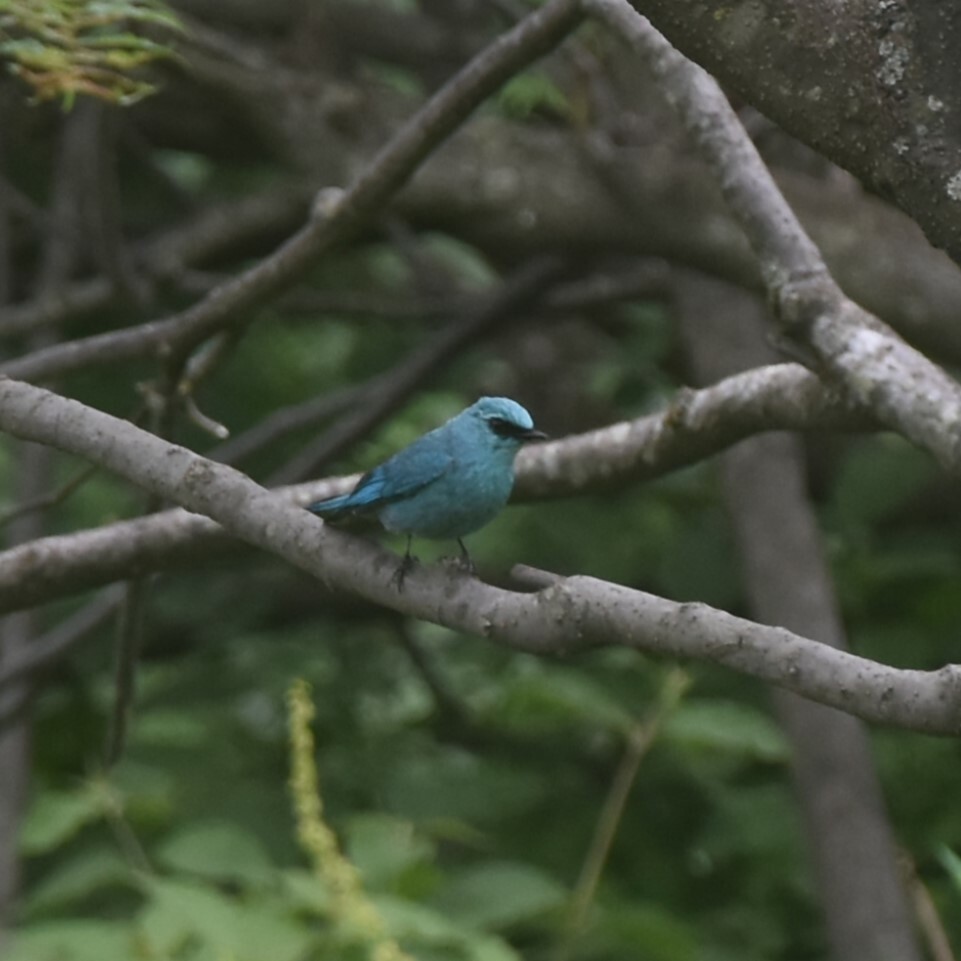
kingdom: Animalia
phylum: Chordata
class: Aves
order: Passeriformes
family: Muscicapidae
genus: Eumyias
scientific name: Eumyias thalassinus
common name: Verditer flycatcher
